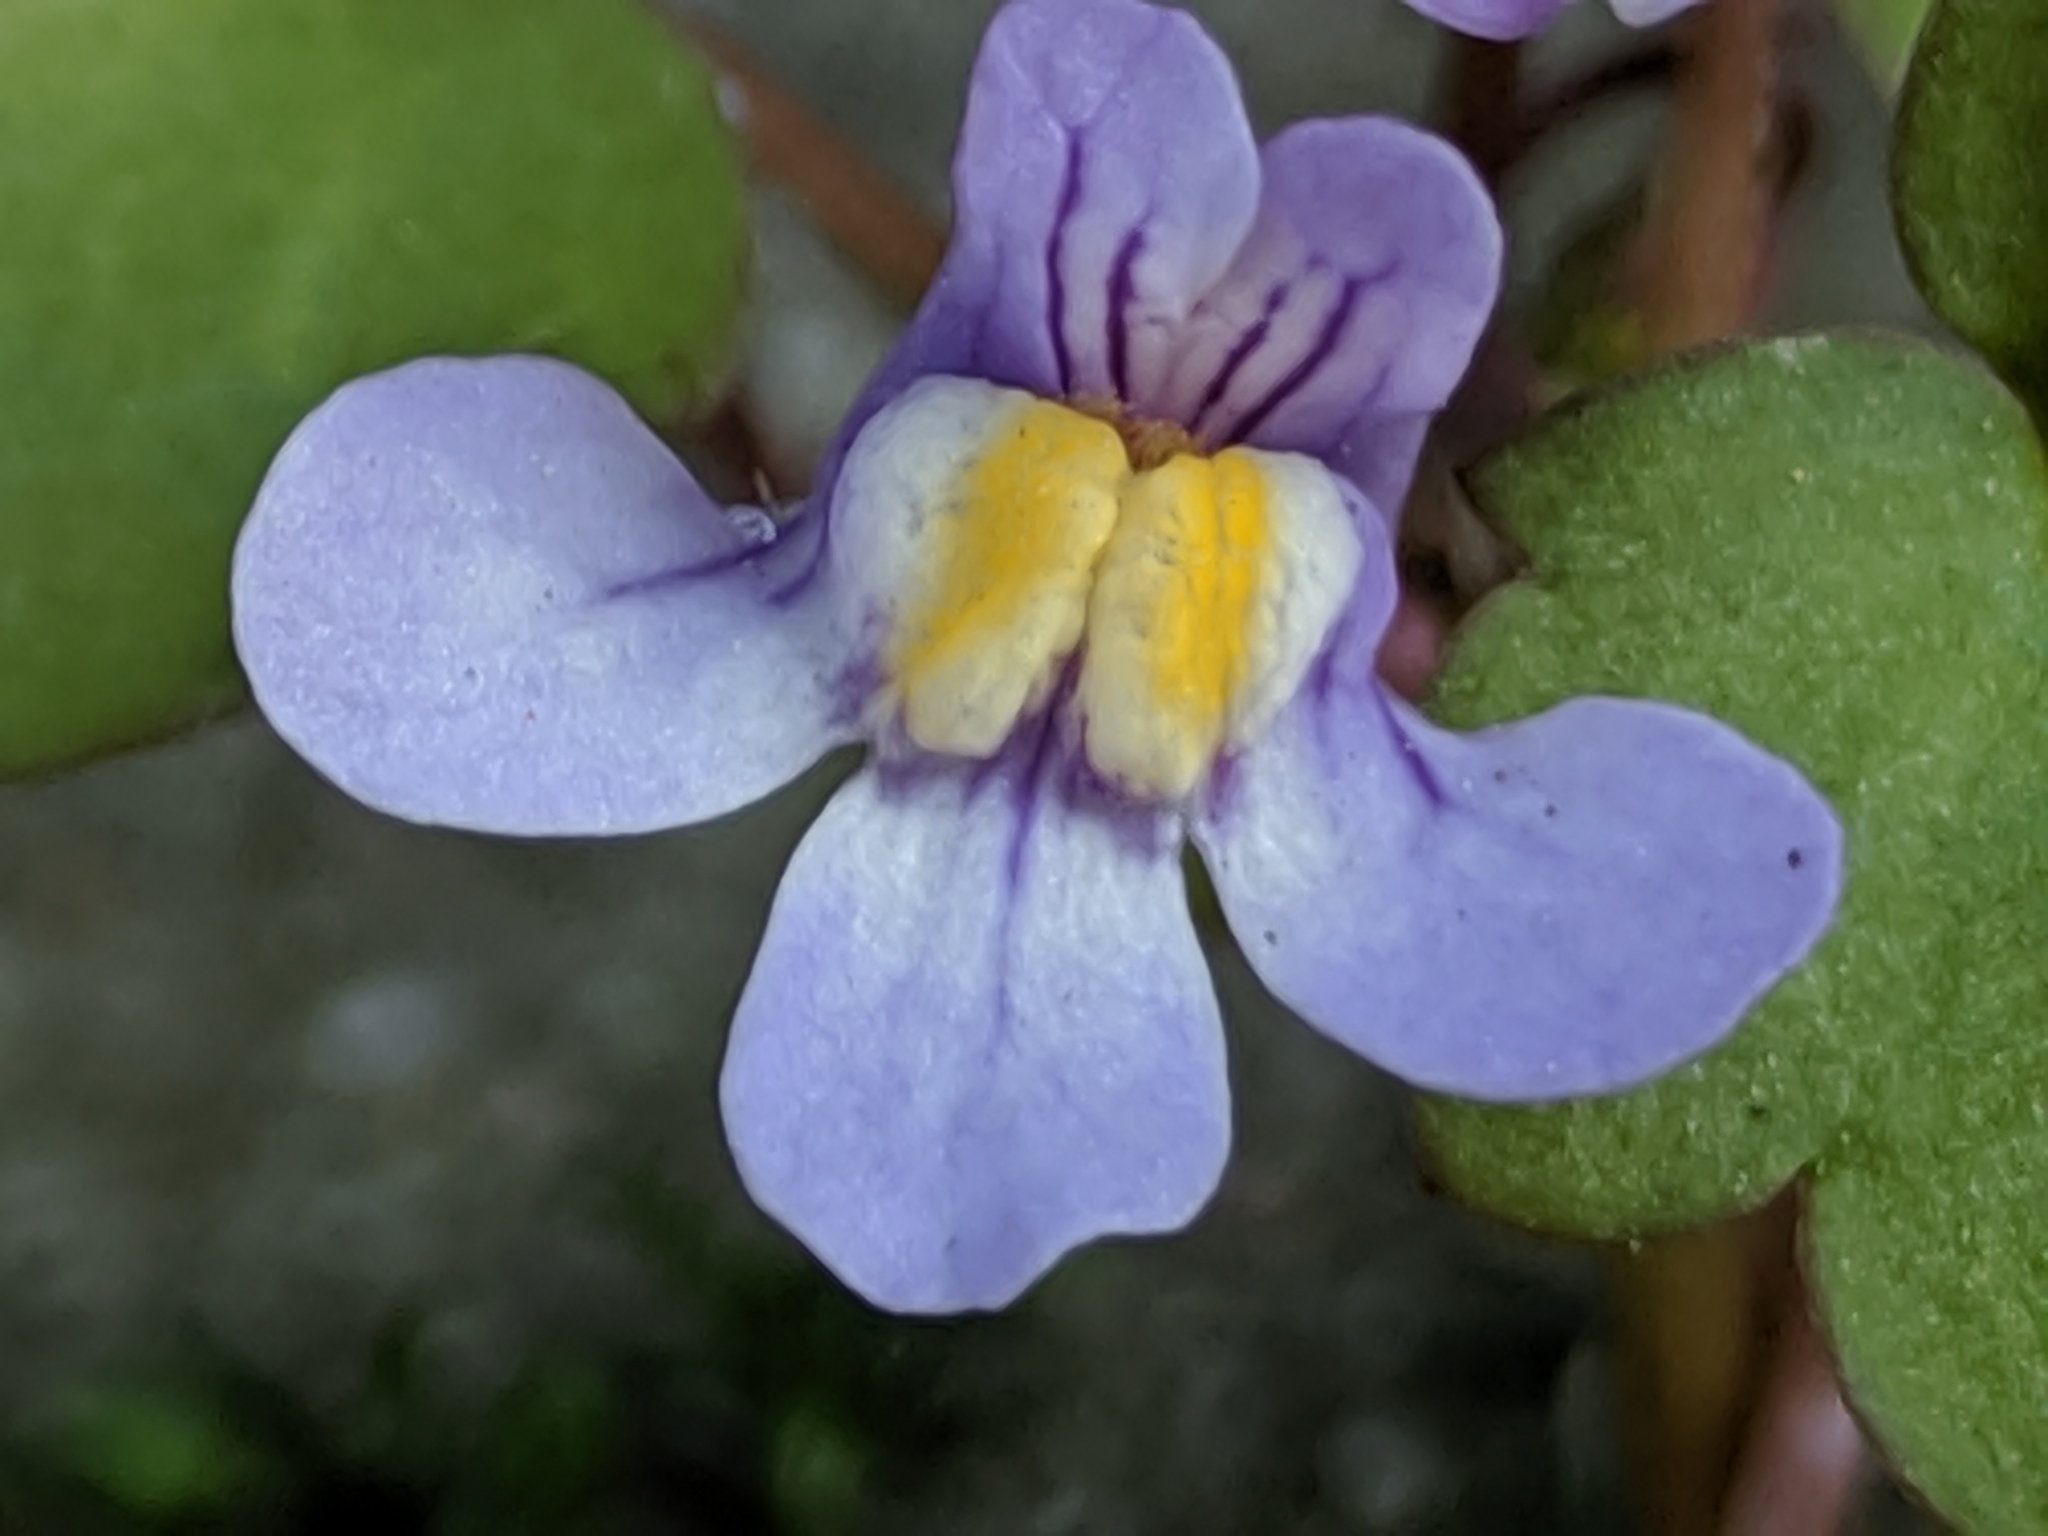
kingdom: Plantae
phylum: Tracheophyta
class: Magnoliopsida
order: Lamiales
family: Plantaginaceae
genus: Cymbalaria
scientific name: Cymbalaria muralis
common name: Ivy-leaved toadflax
